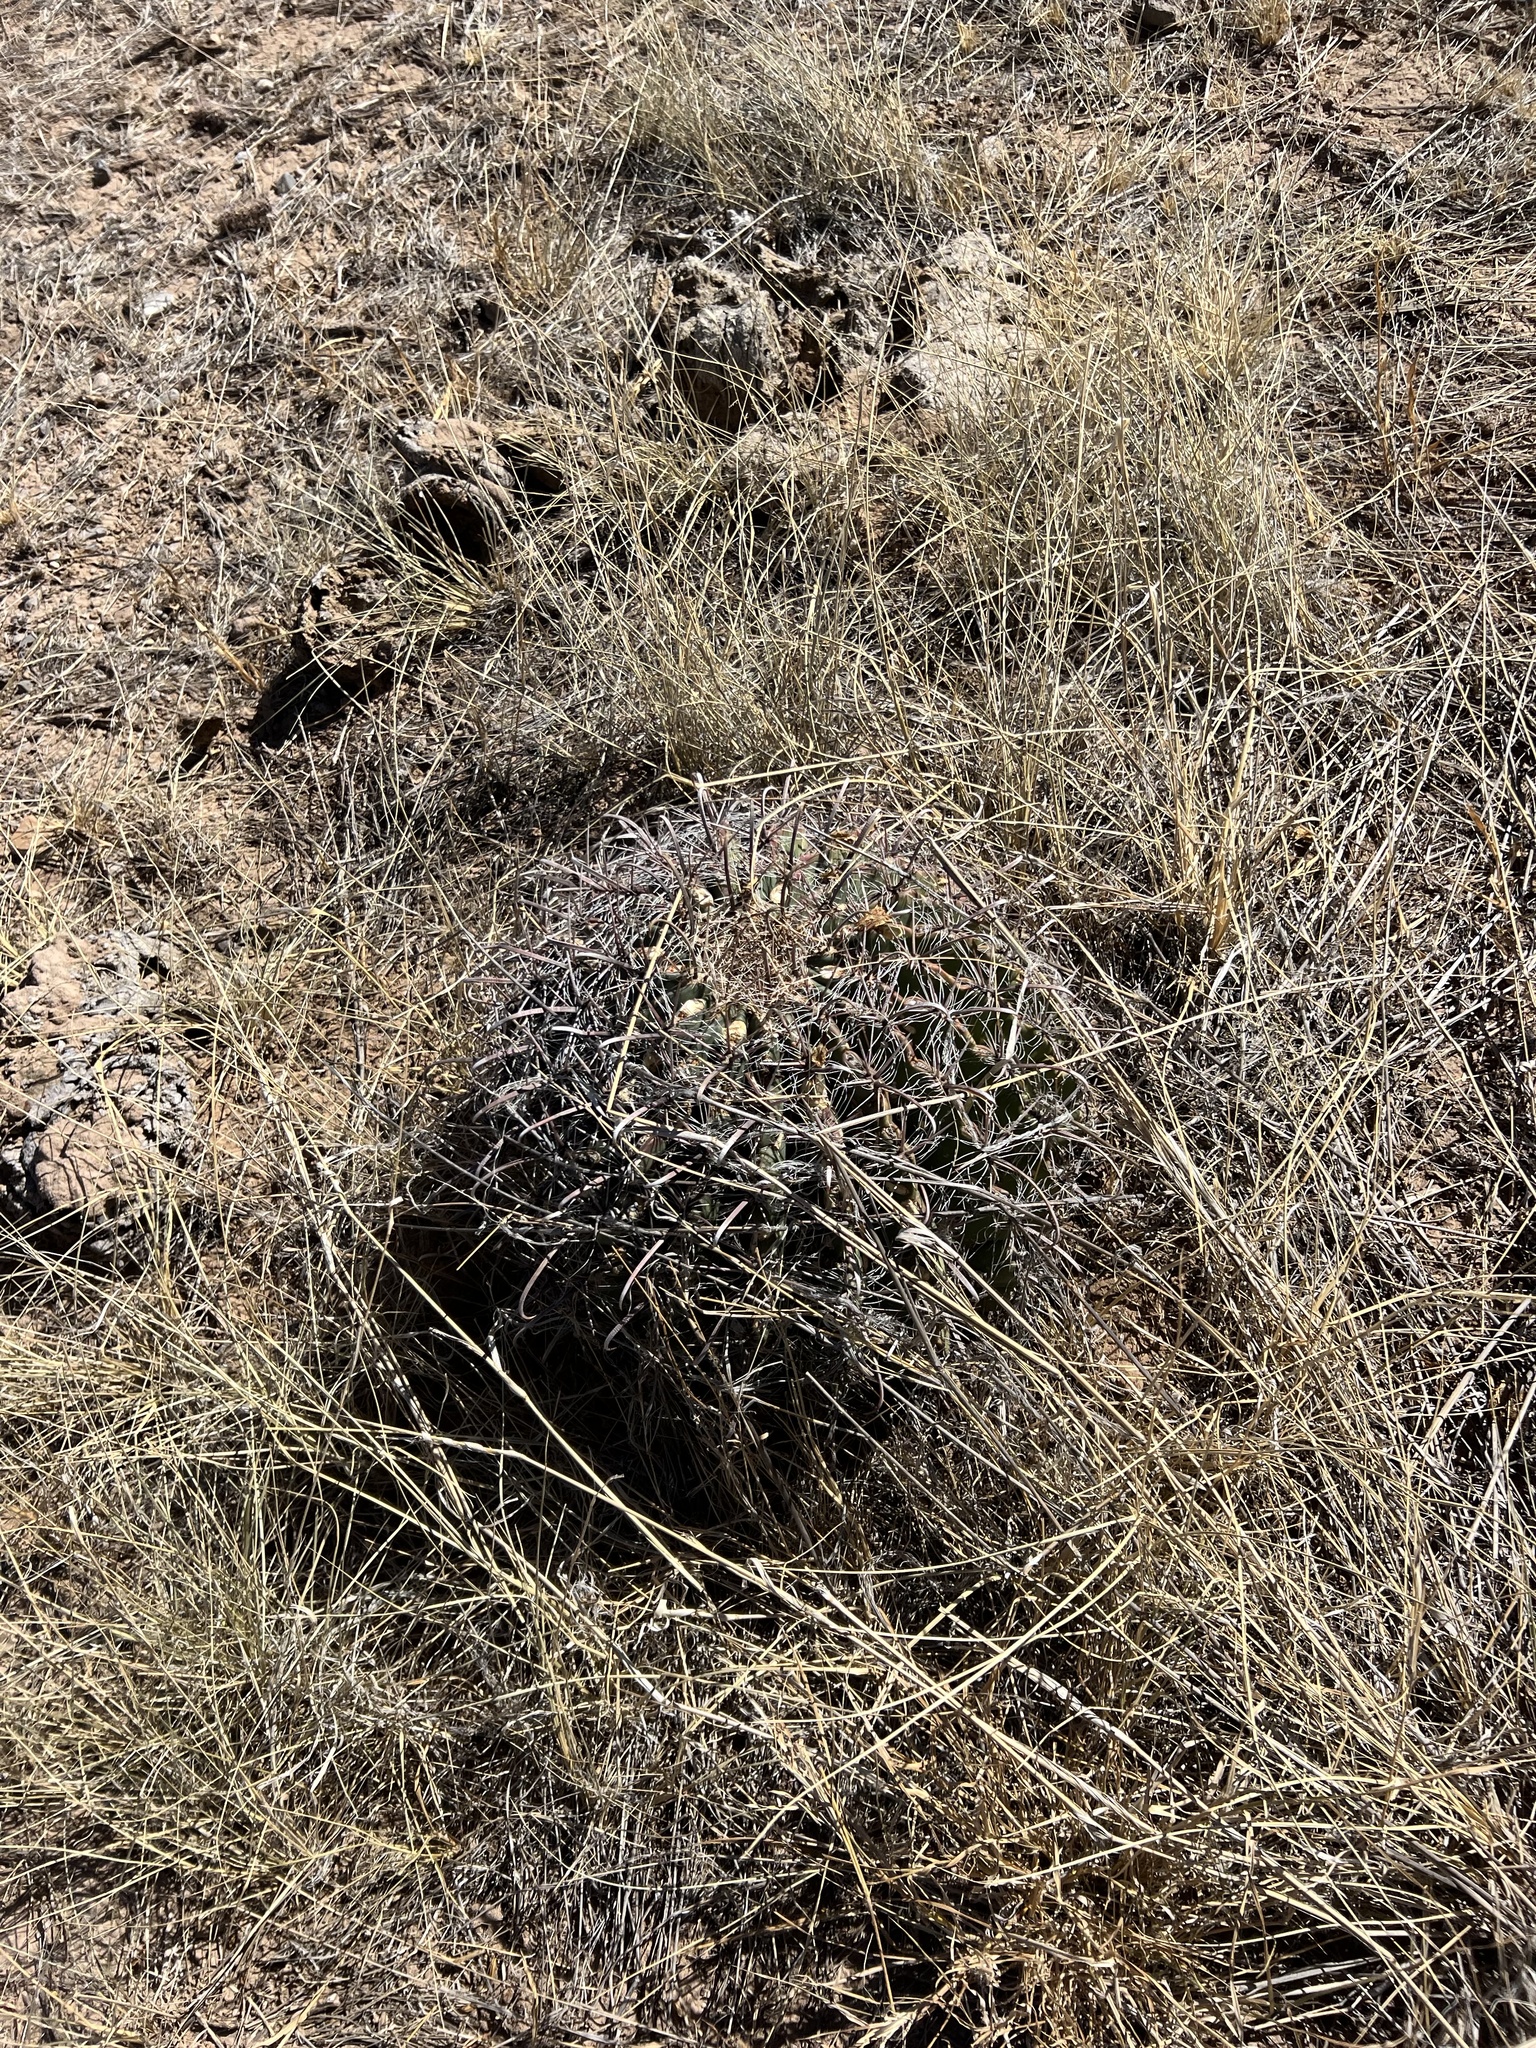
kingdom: Plantae
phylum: Tracheophyta
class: Magnoliopsida
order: Caryophyllales
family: Cactaceae
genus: Ferocactus
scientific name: Ferocactus wislizeni
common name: Candy barrel cactus
